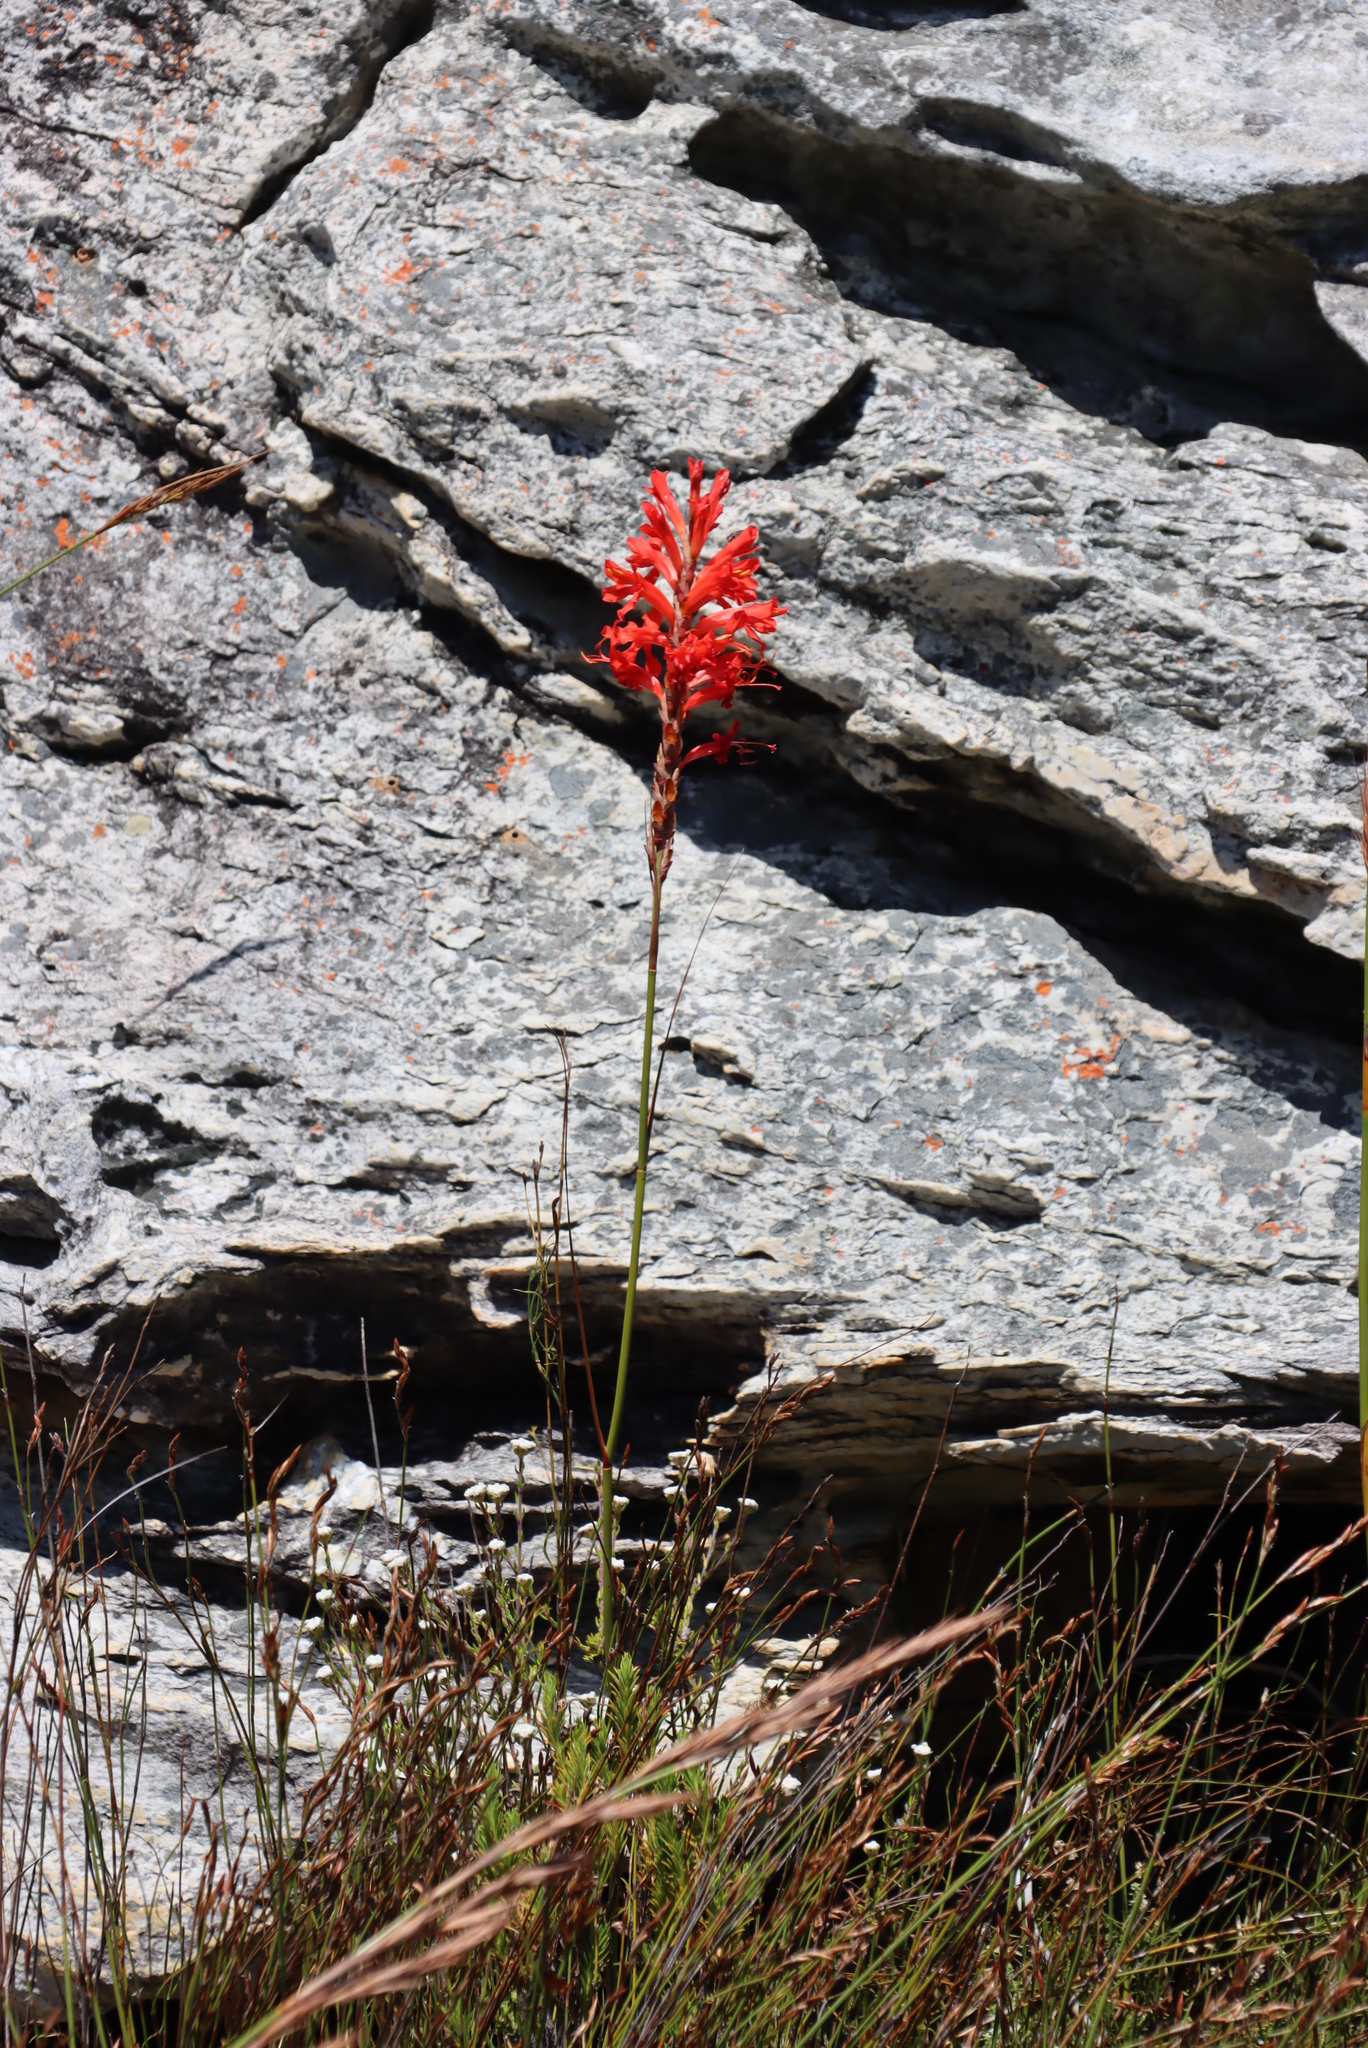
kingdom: Plantae
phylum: Tracheophyta
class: Liliopsida
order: Asparagales
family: Iridaceae
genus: Tritoniopsis
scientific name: Tritoniopsis triticea
